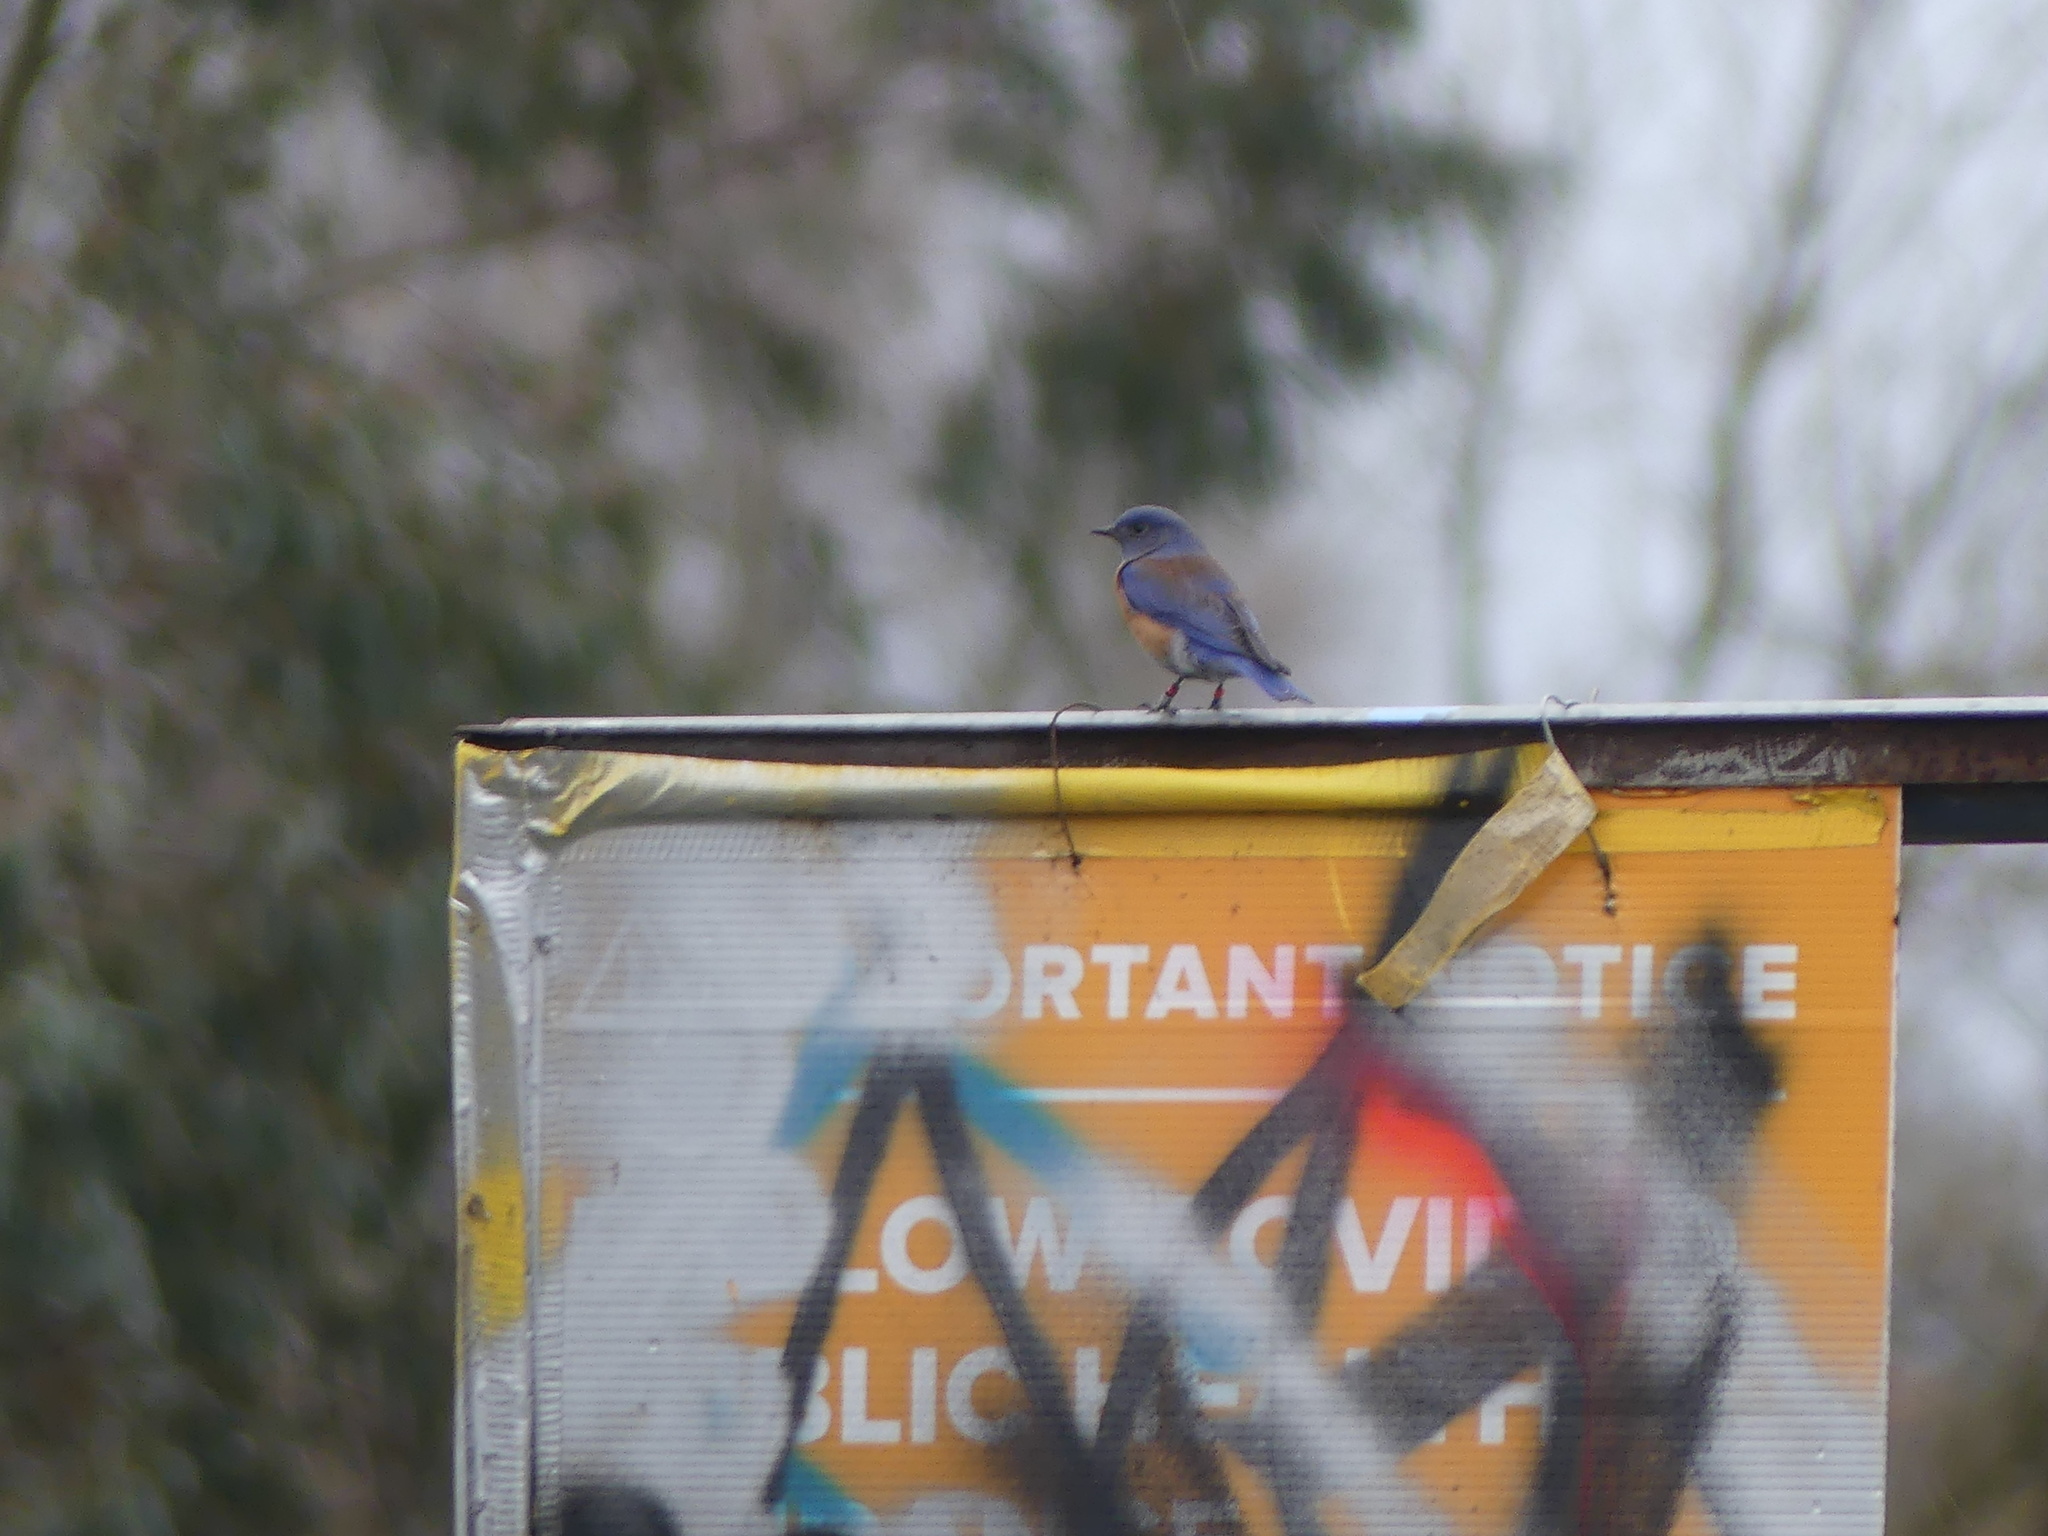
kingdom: Animalia
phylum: Chordata
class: Aves
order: Passeriformes
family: Turdidae
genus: Sialia
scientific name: Sialia mexicana
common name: Western bluebird
